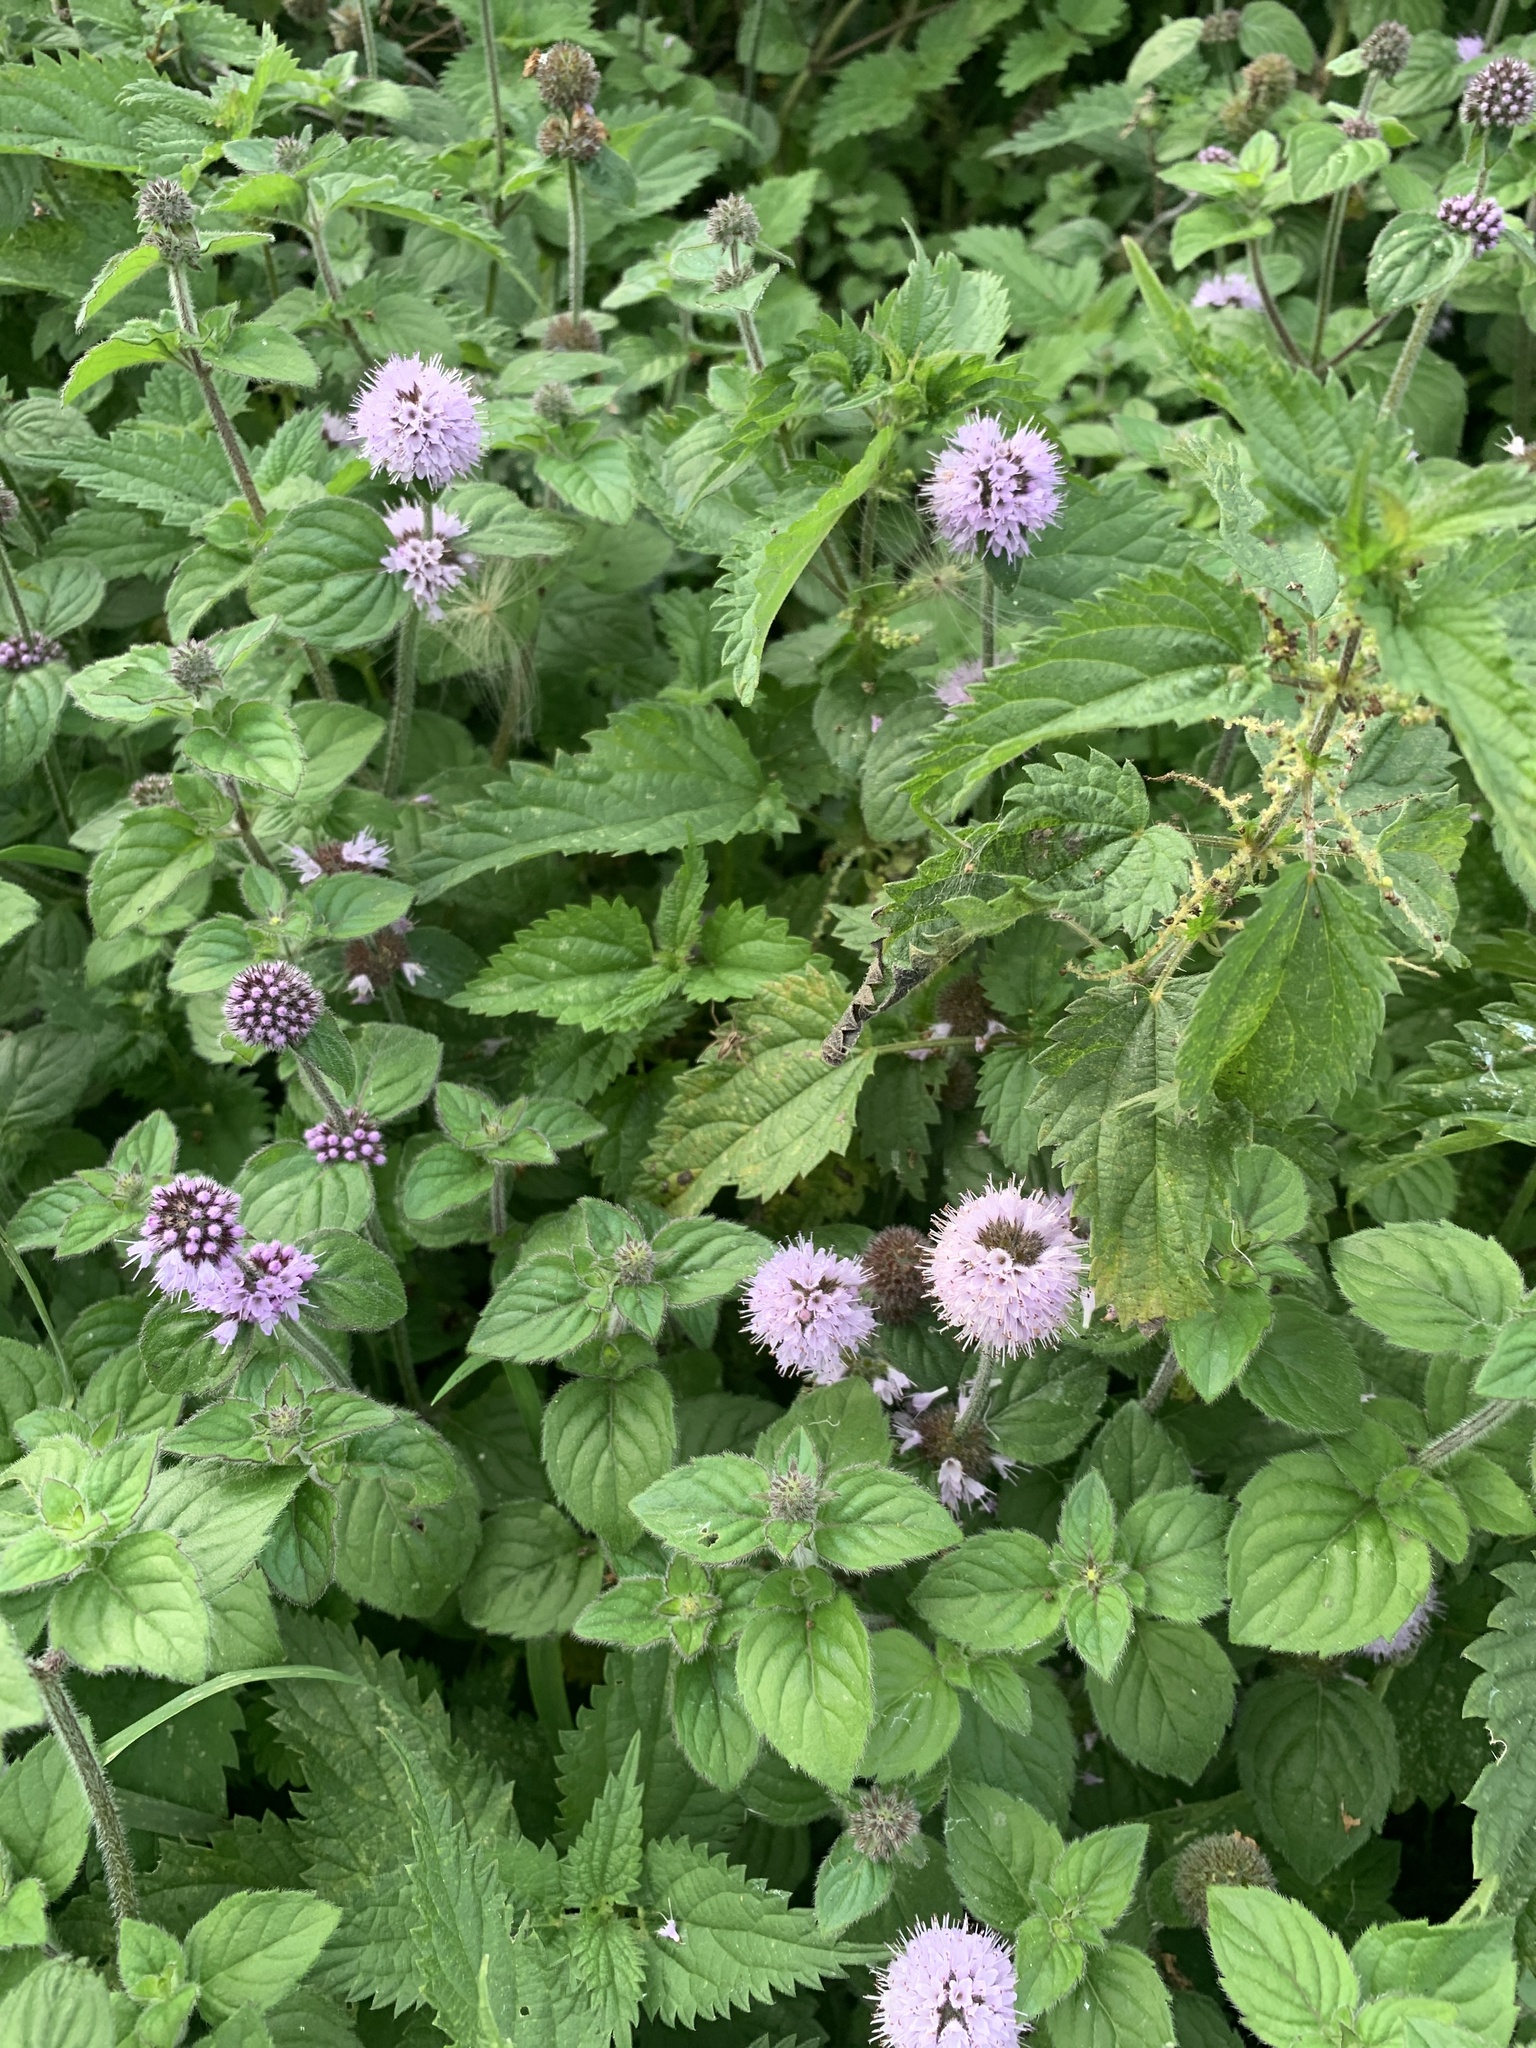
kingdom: Plantae
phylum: Tracheophyta
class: Magnoliopsida
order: Lamiales
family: Lamiaceae
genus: Mentha
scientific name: Mentha aquatica
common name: Water mint
